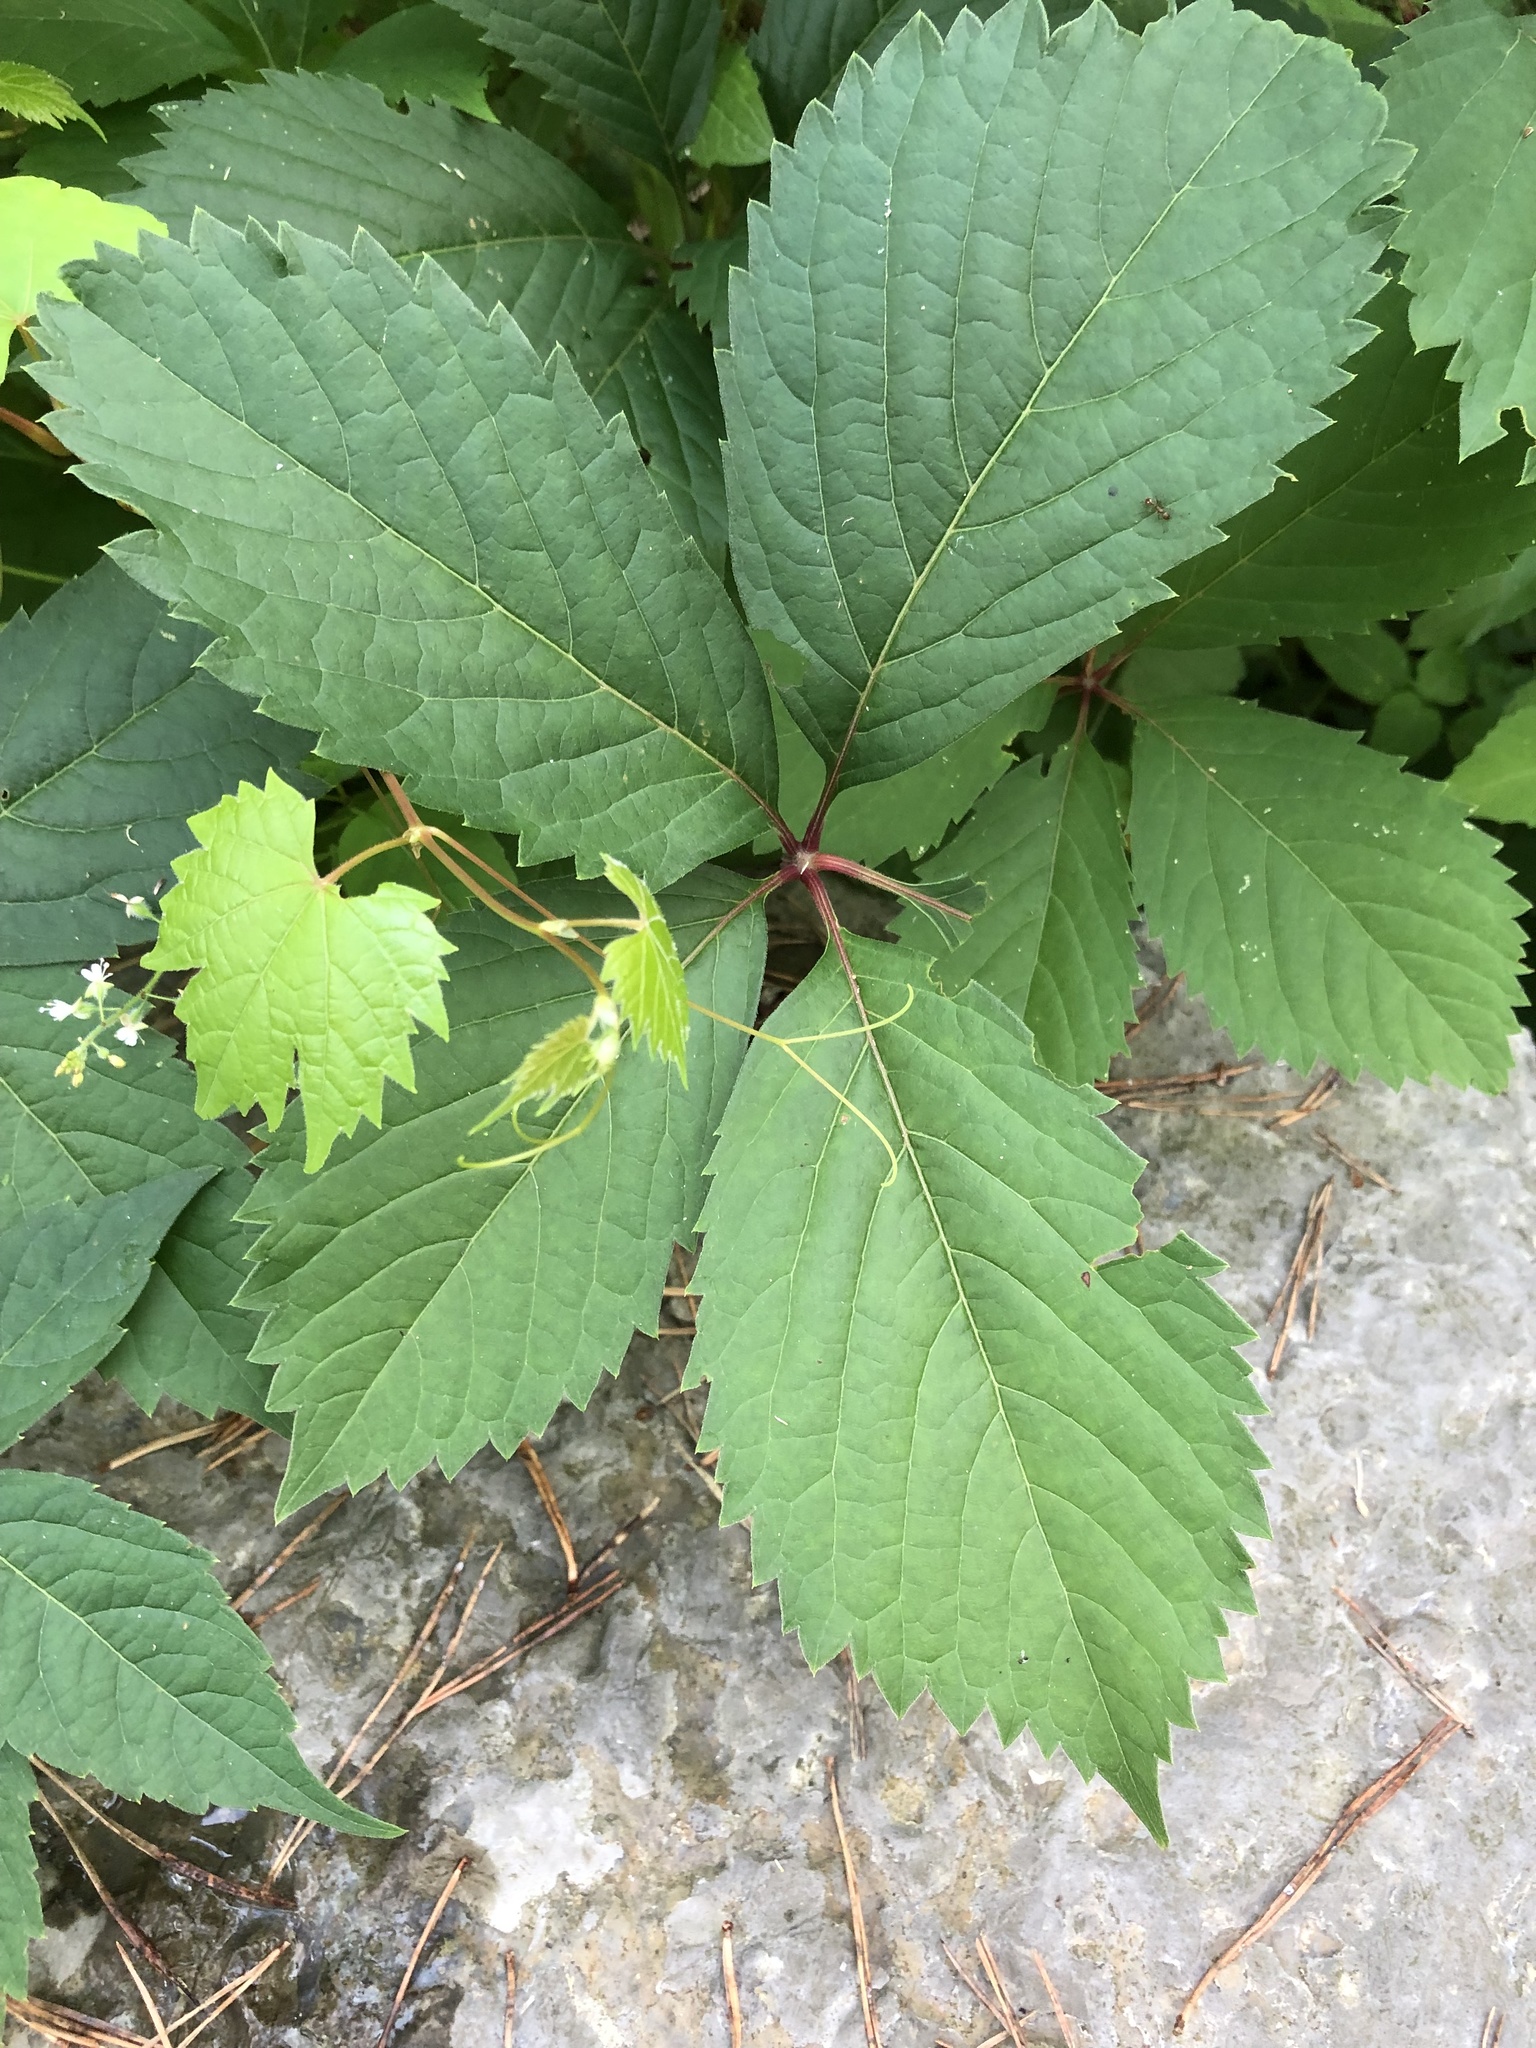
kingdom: Plantae
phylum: Tracheophyta
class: Magnoliopsida
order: Vitales
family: Vitaceae
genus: Parthenocissus
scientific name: Parthenocissus inserta
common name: False virginia-creeper
